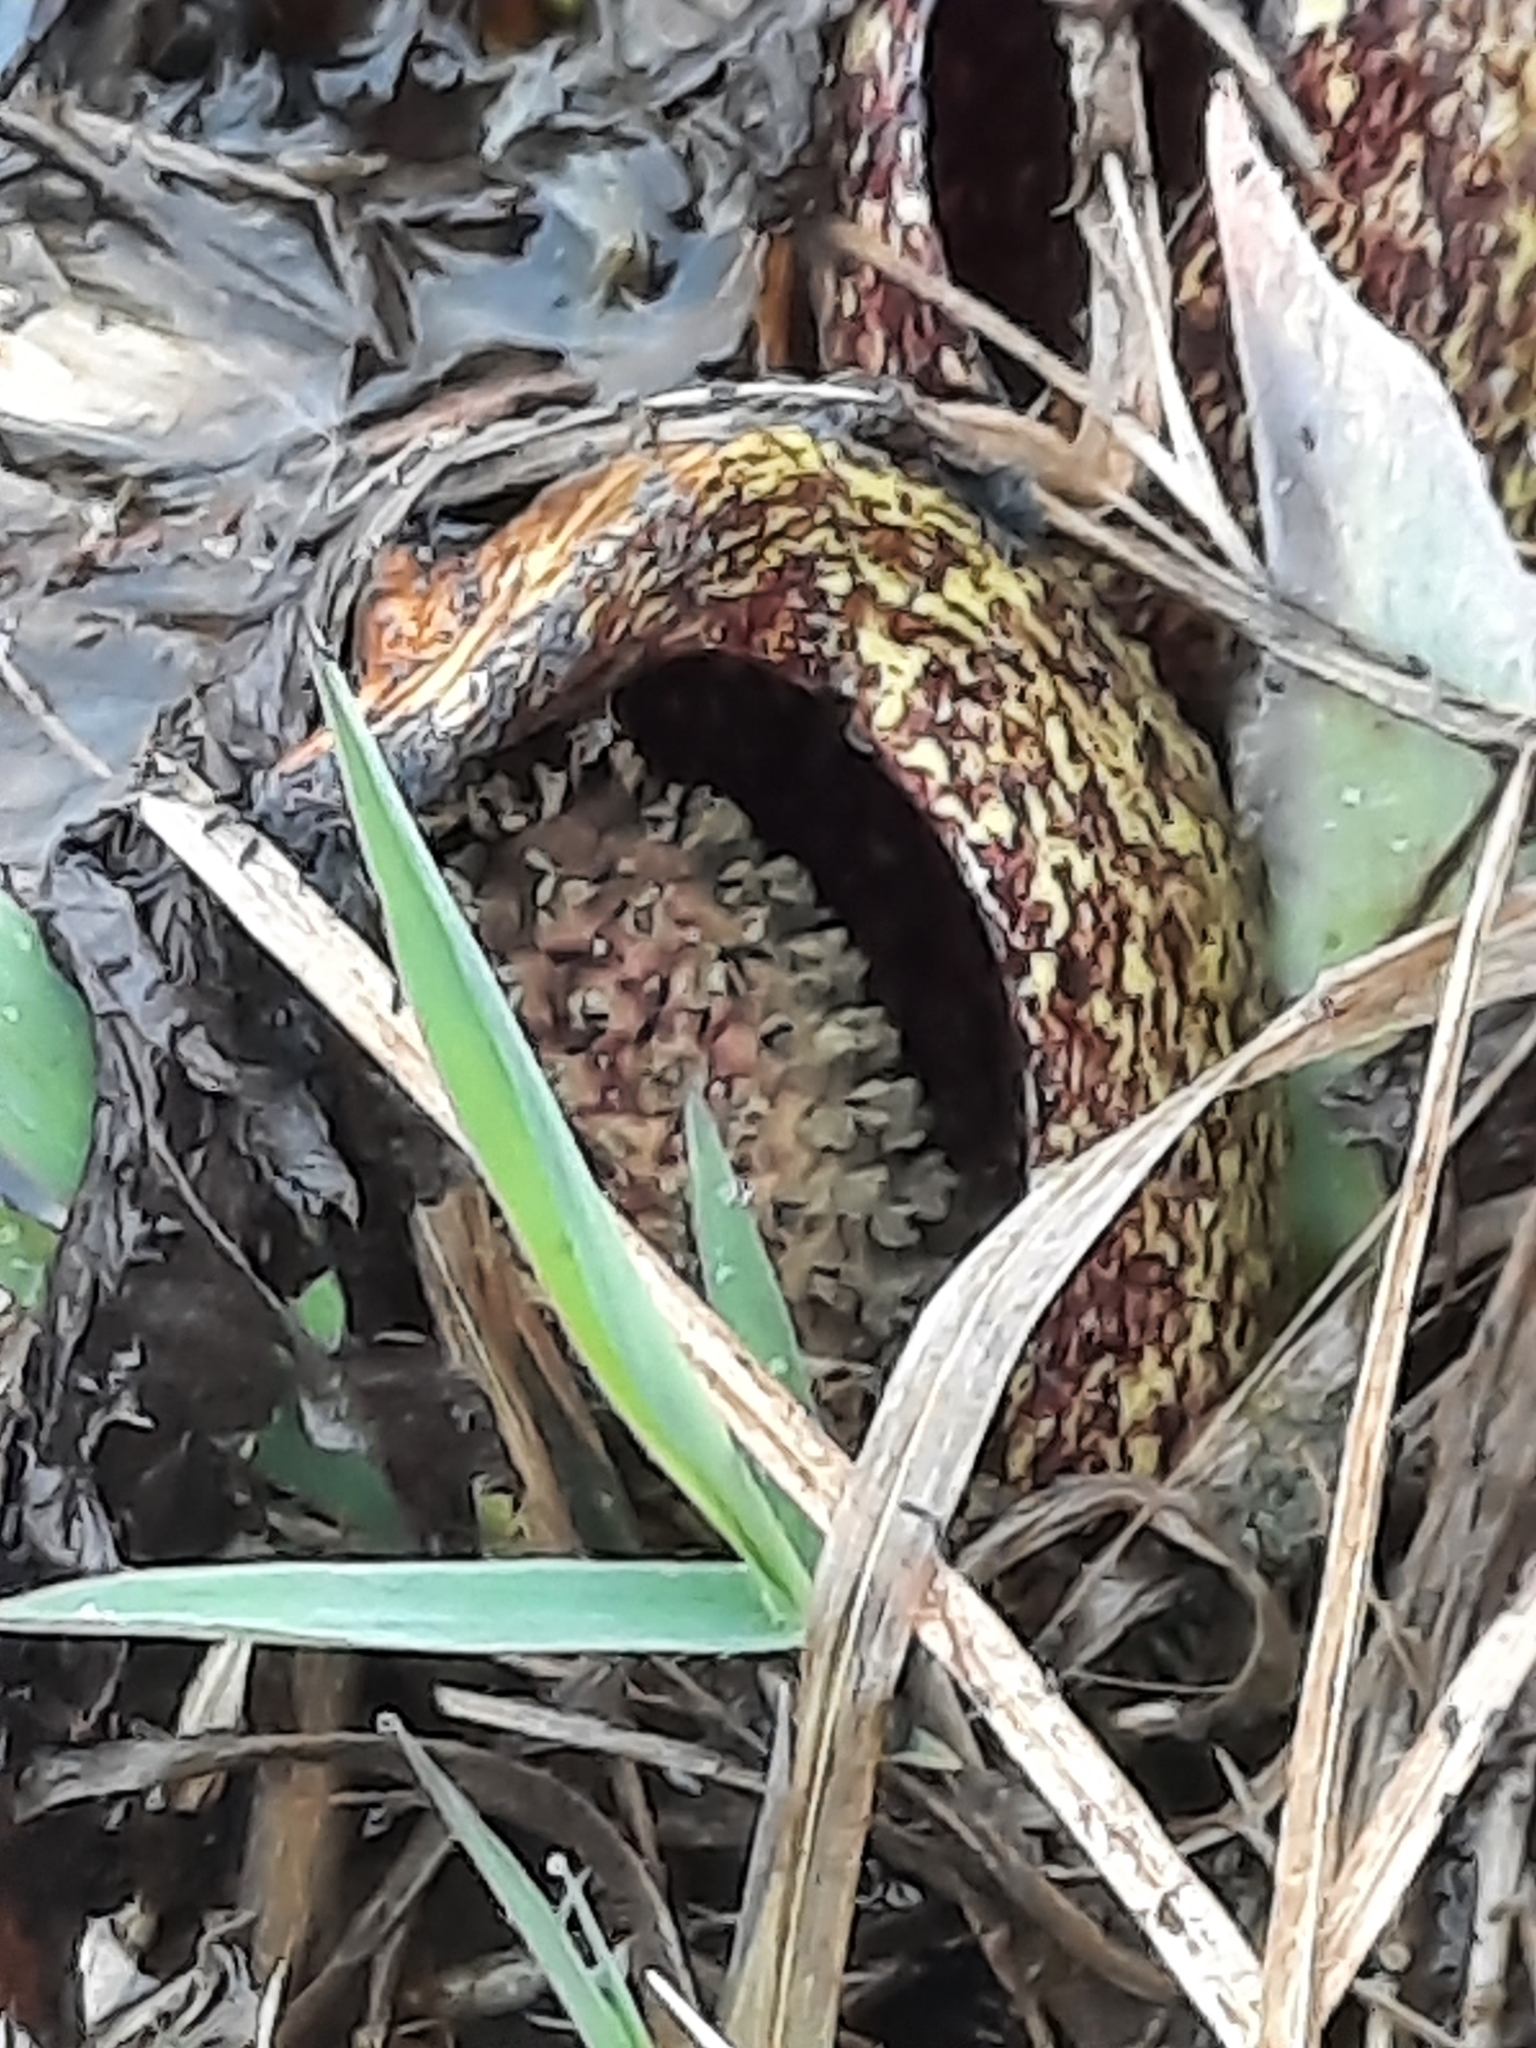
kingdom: Plantae
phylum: Tracheophyta
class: Liliopsida
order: Alismatales
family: Araceae
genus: Symplocarpus
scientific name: Symplocarpus foetidus
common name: Eastern skunk cabbage
